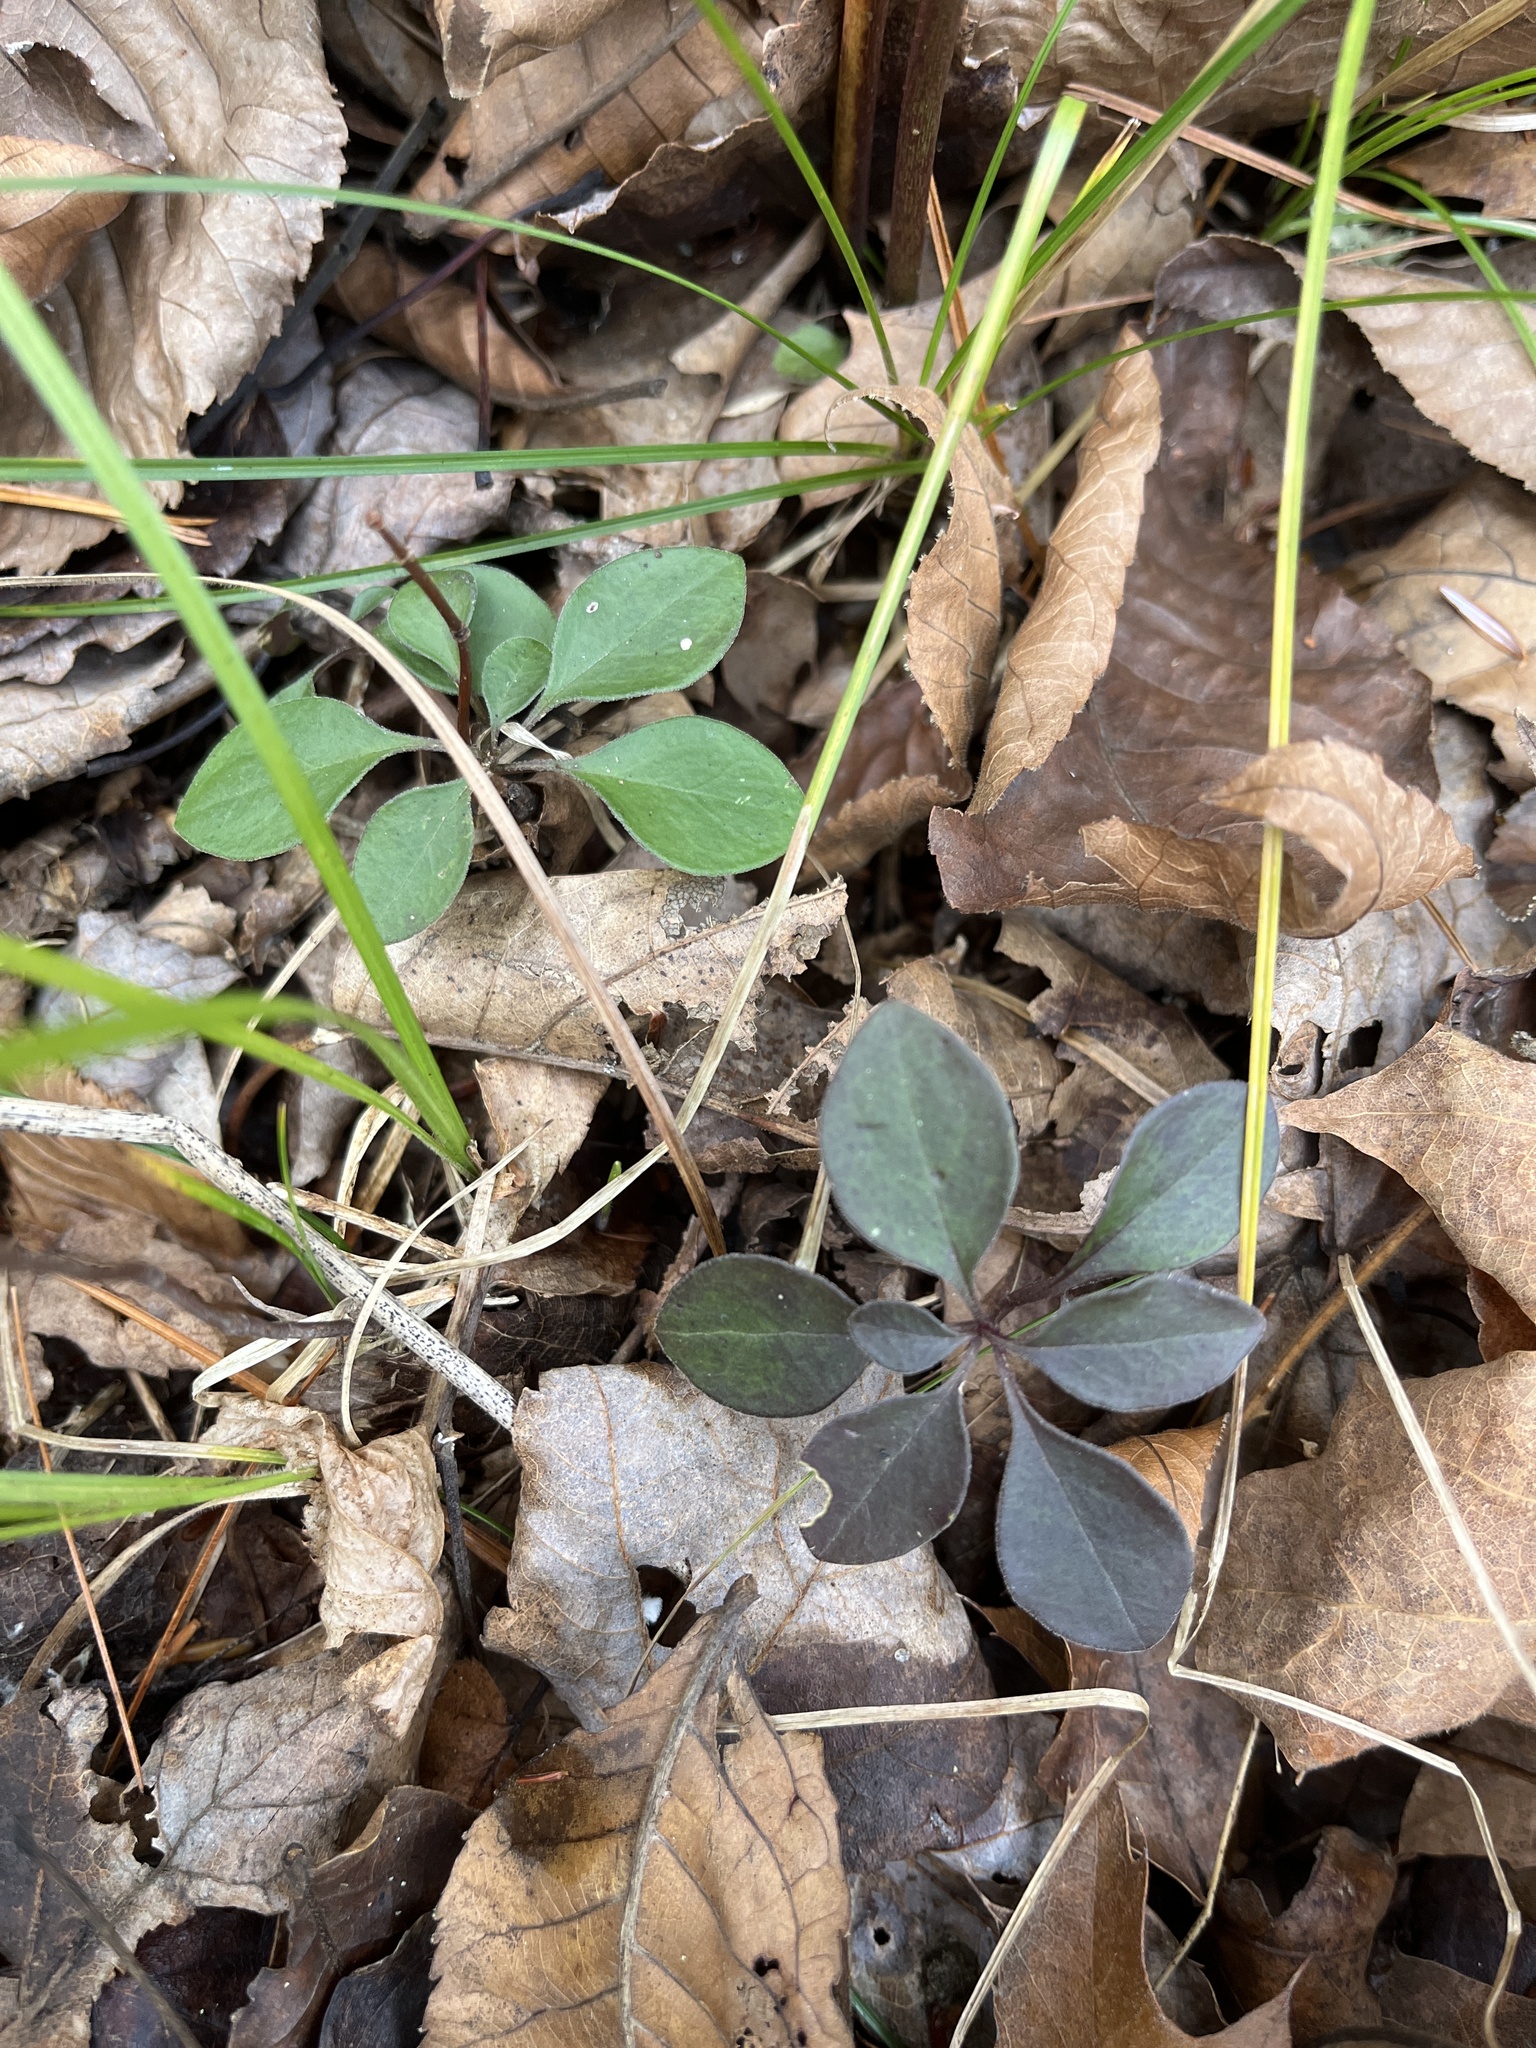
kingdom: Plantae
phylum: Tracheophyta
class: Magnoliopsida
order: Fabales
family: Polygalaceae
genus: Polygaloides
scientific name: Polygaloides paucifolia
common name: Bird-on-the-wing
